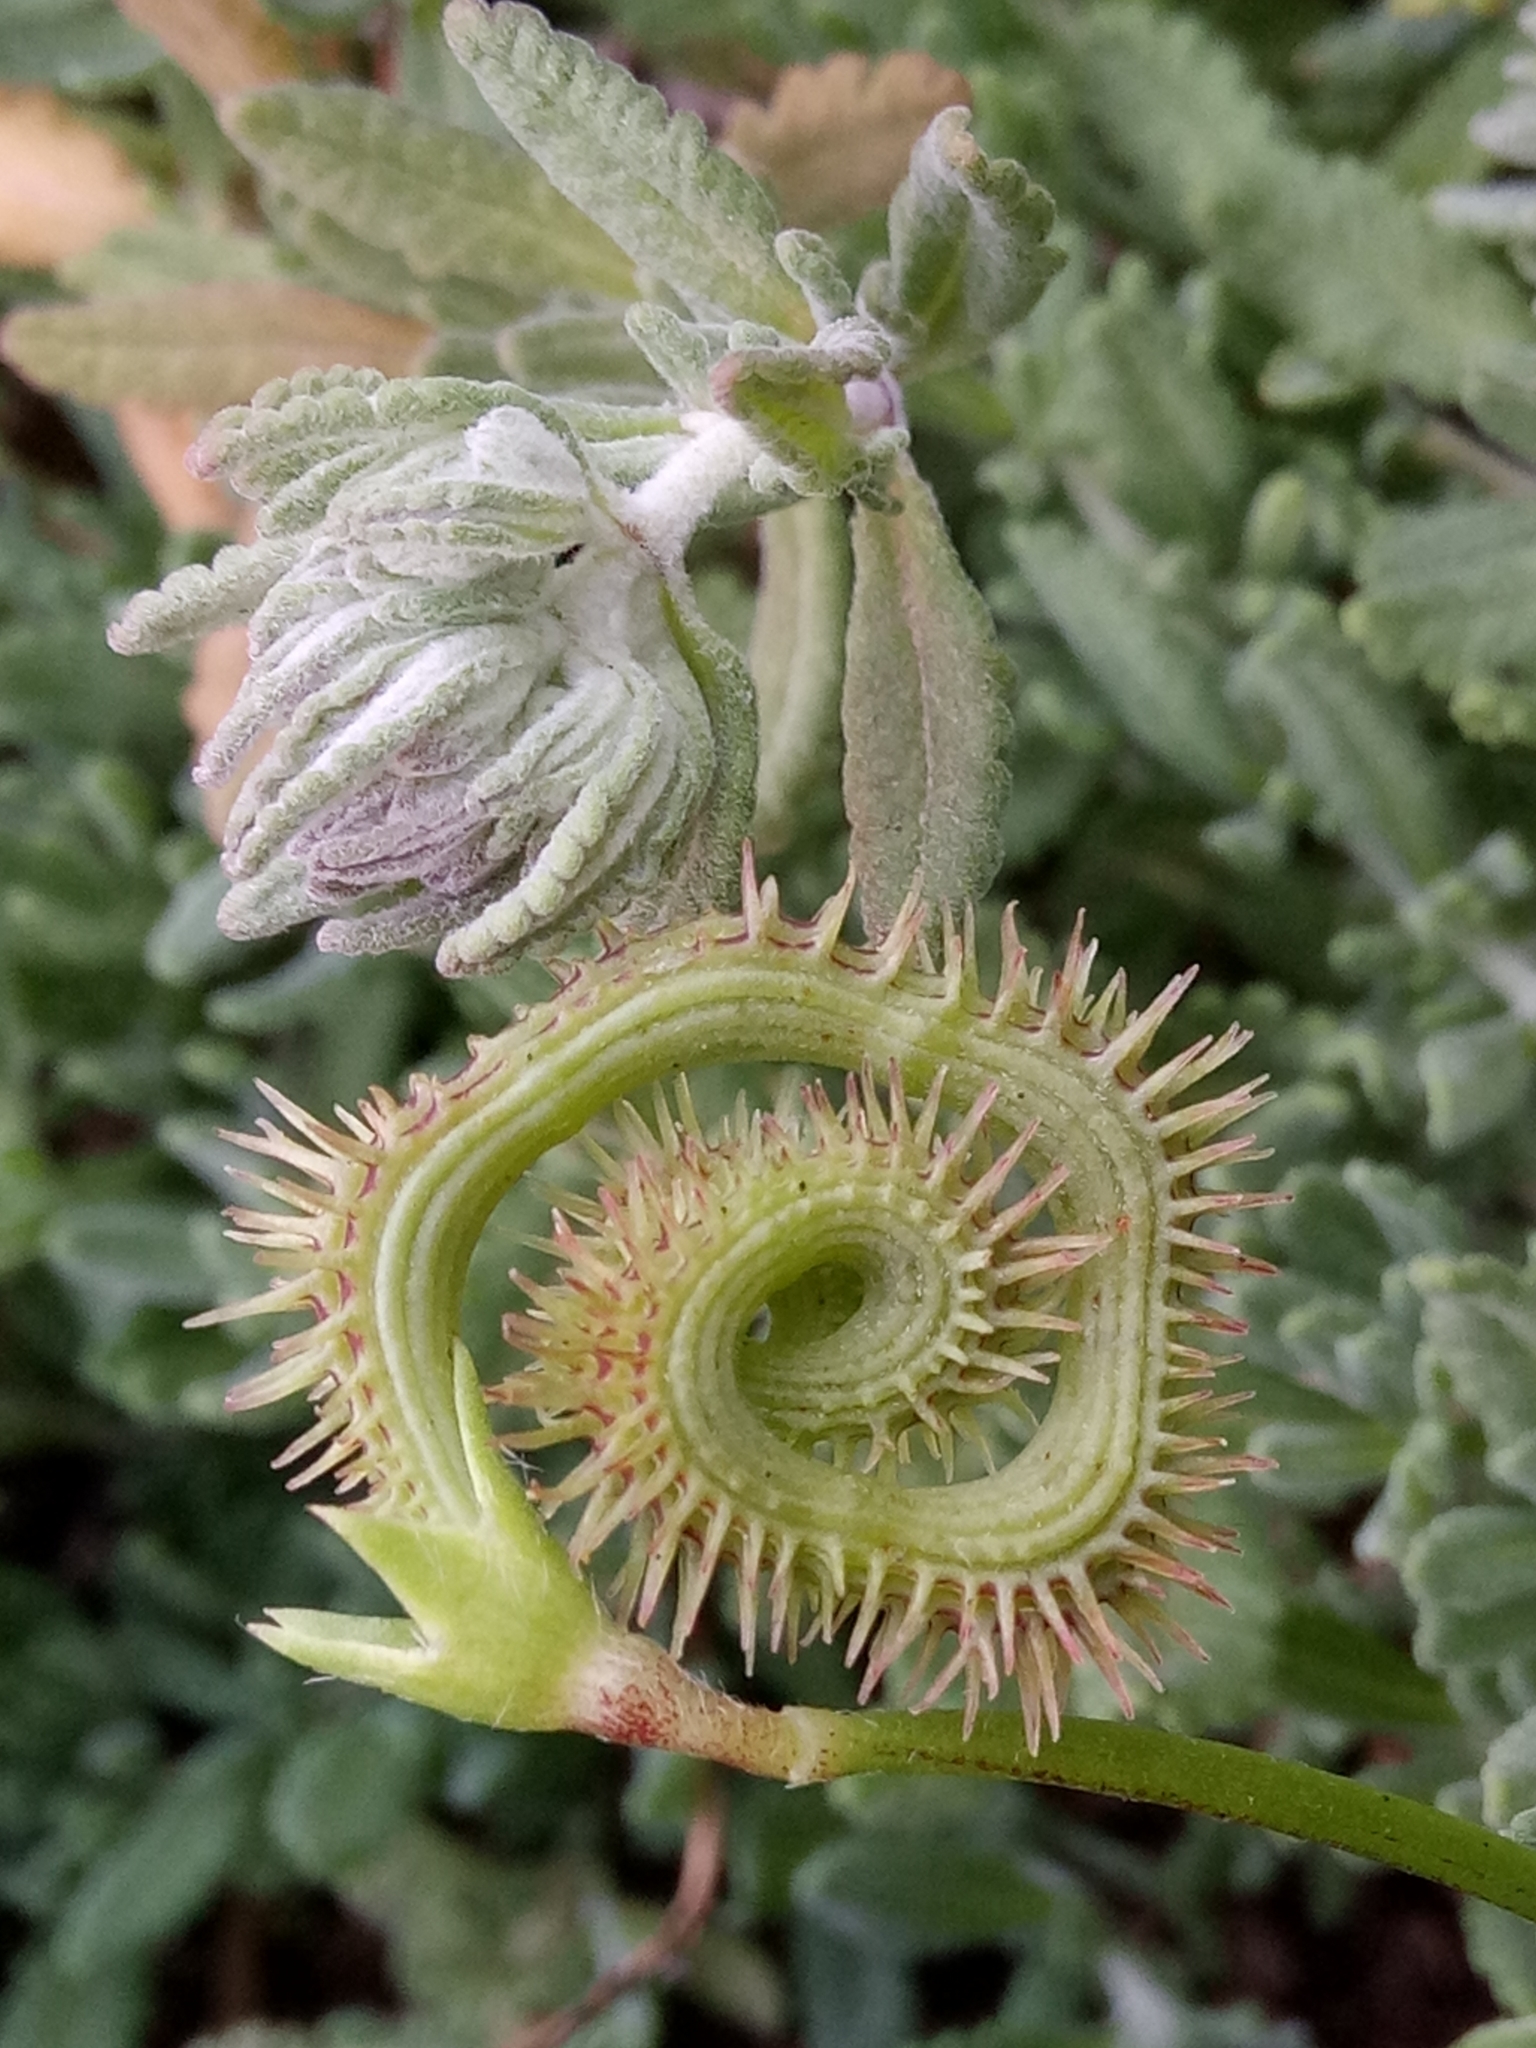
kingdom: Plantae
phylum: Tracheophyta
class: Magnoliopsida
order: Fabales
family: Fabaceae
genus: Scorpiurus
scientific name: Scorpiurus muricatus
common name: Caterpillar-plant
